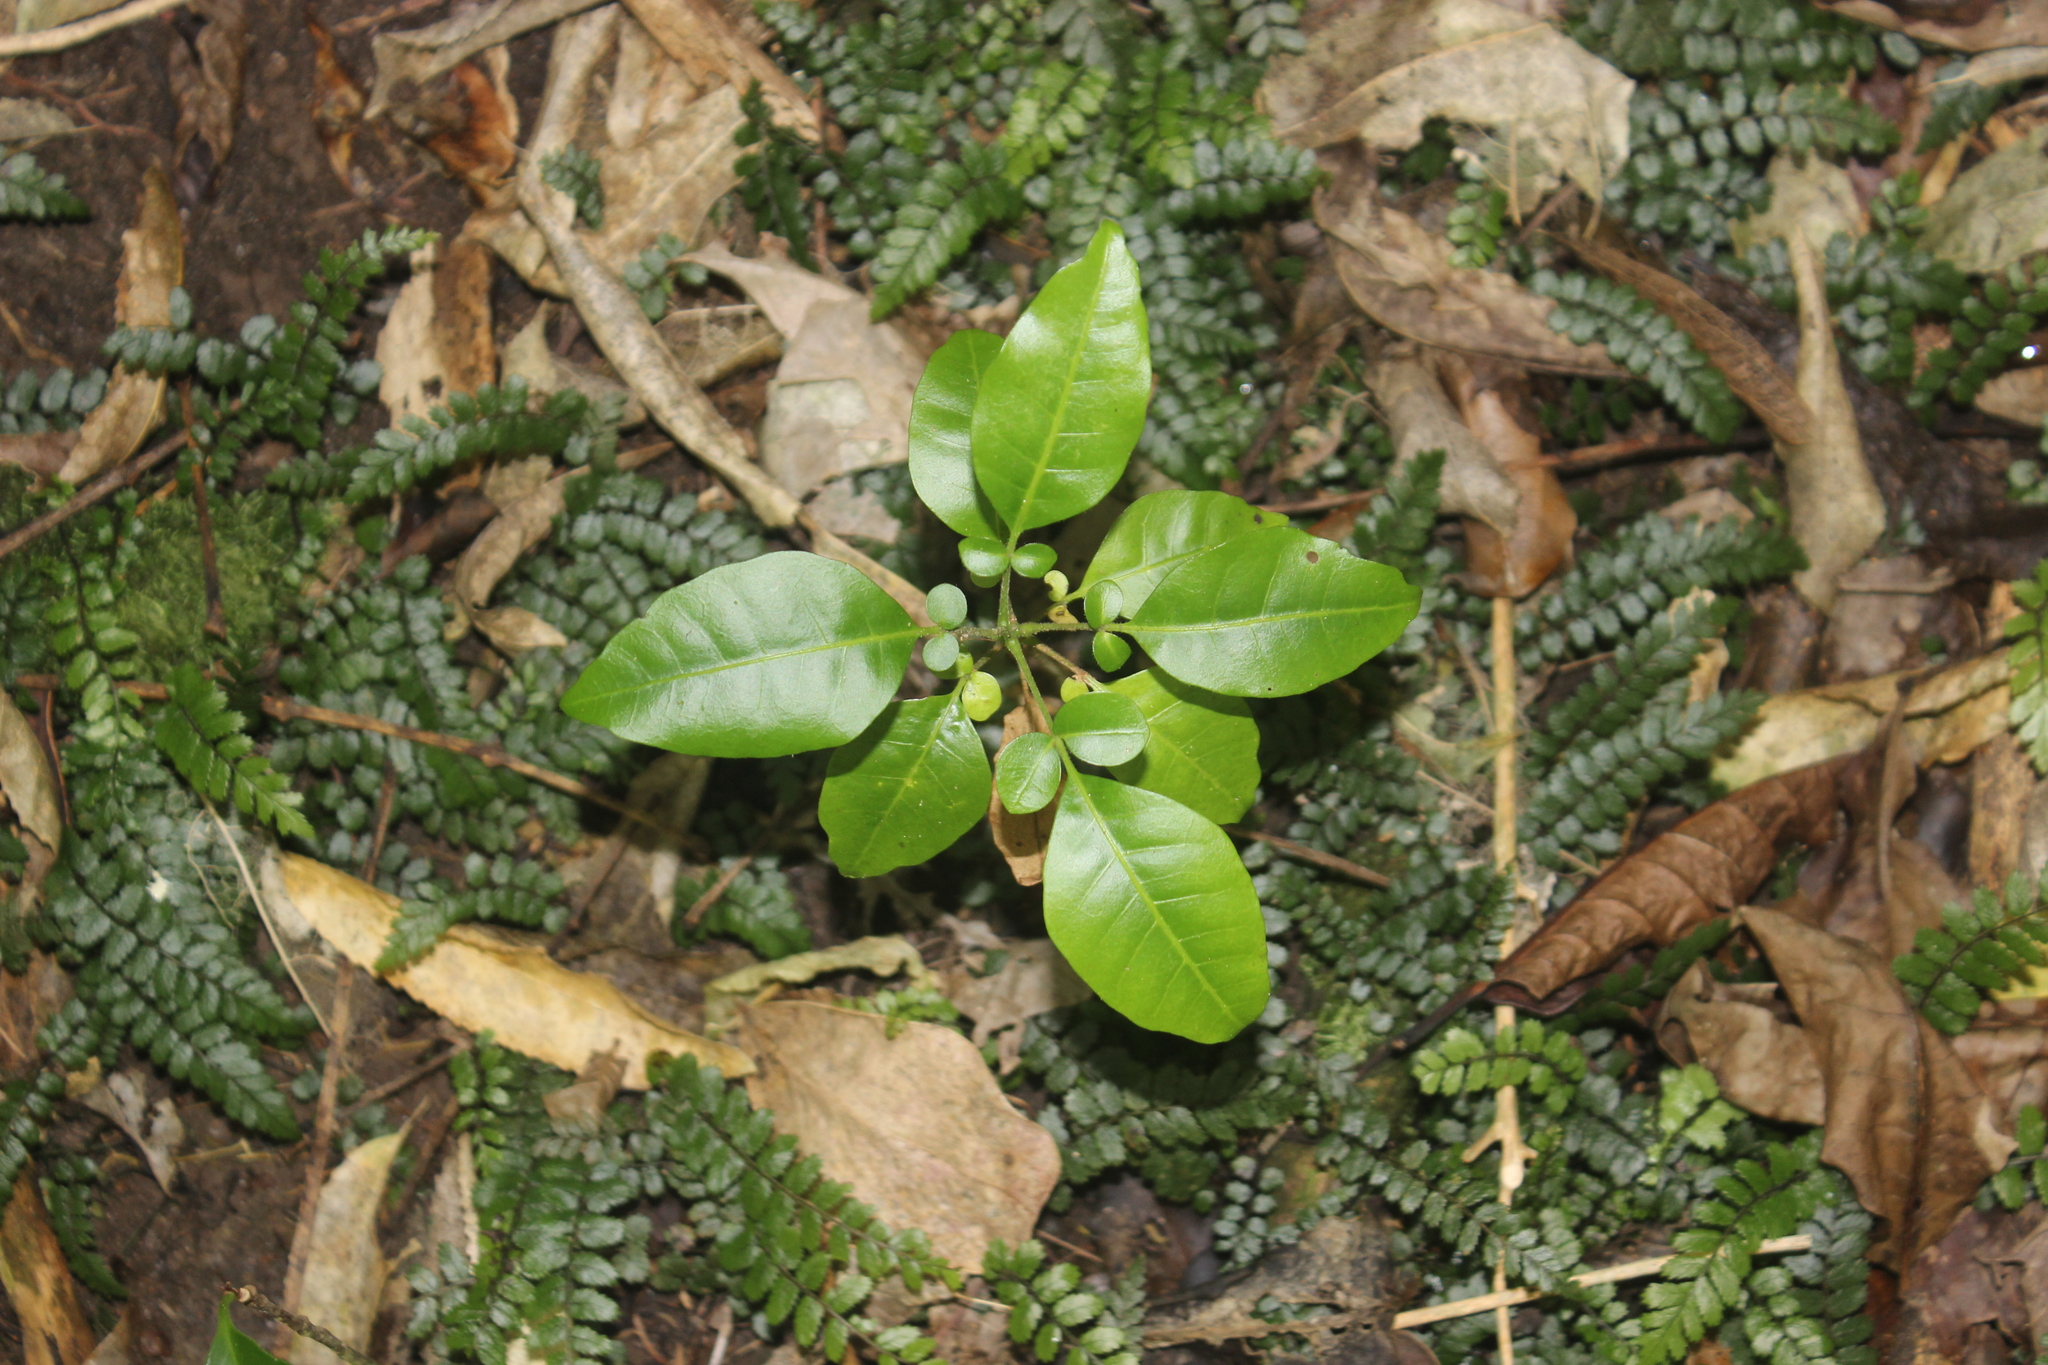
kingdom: Plantae
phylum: Tracheophyta
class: Magnoliopsida
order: Sapindales
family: Meliaceae
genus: Didymocheton
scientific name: Didymocheton spectabilis
